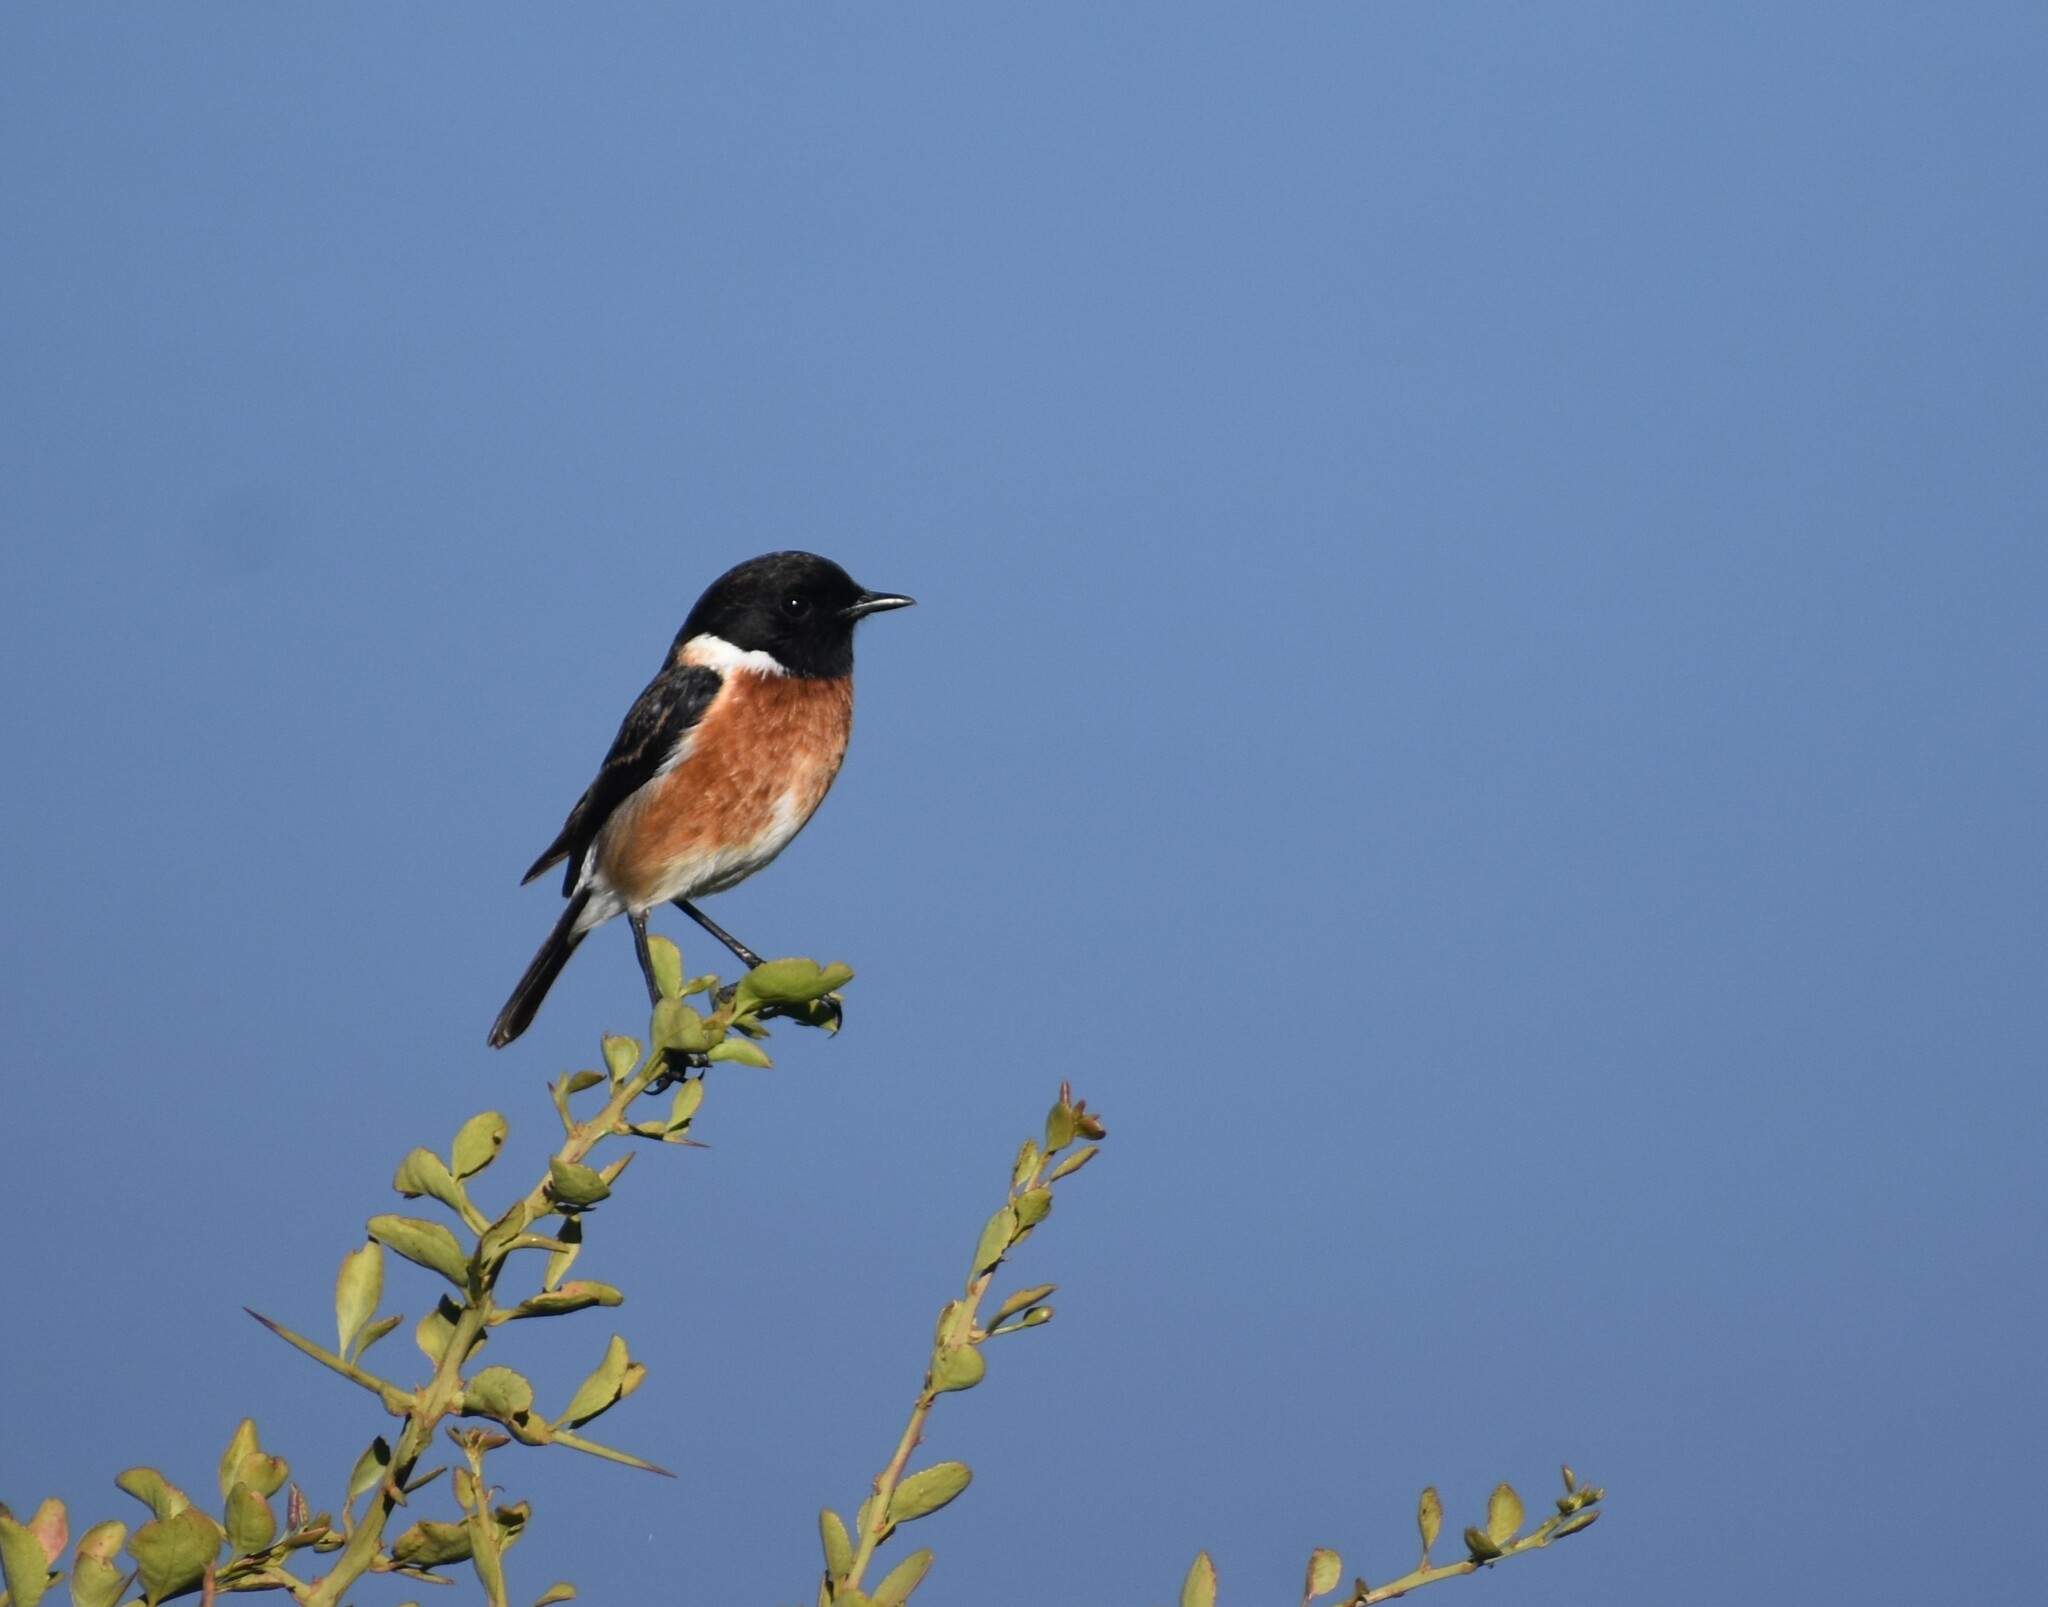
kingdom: Animalia
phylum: Chordata
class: Aves
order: Passeriformes
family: Muscicapidae
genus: Saxicola
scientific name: Saxicola torquatus
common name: African stonechat
